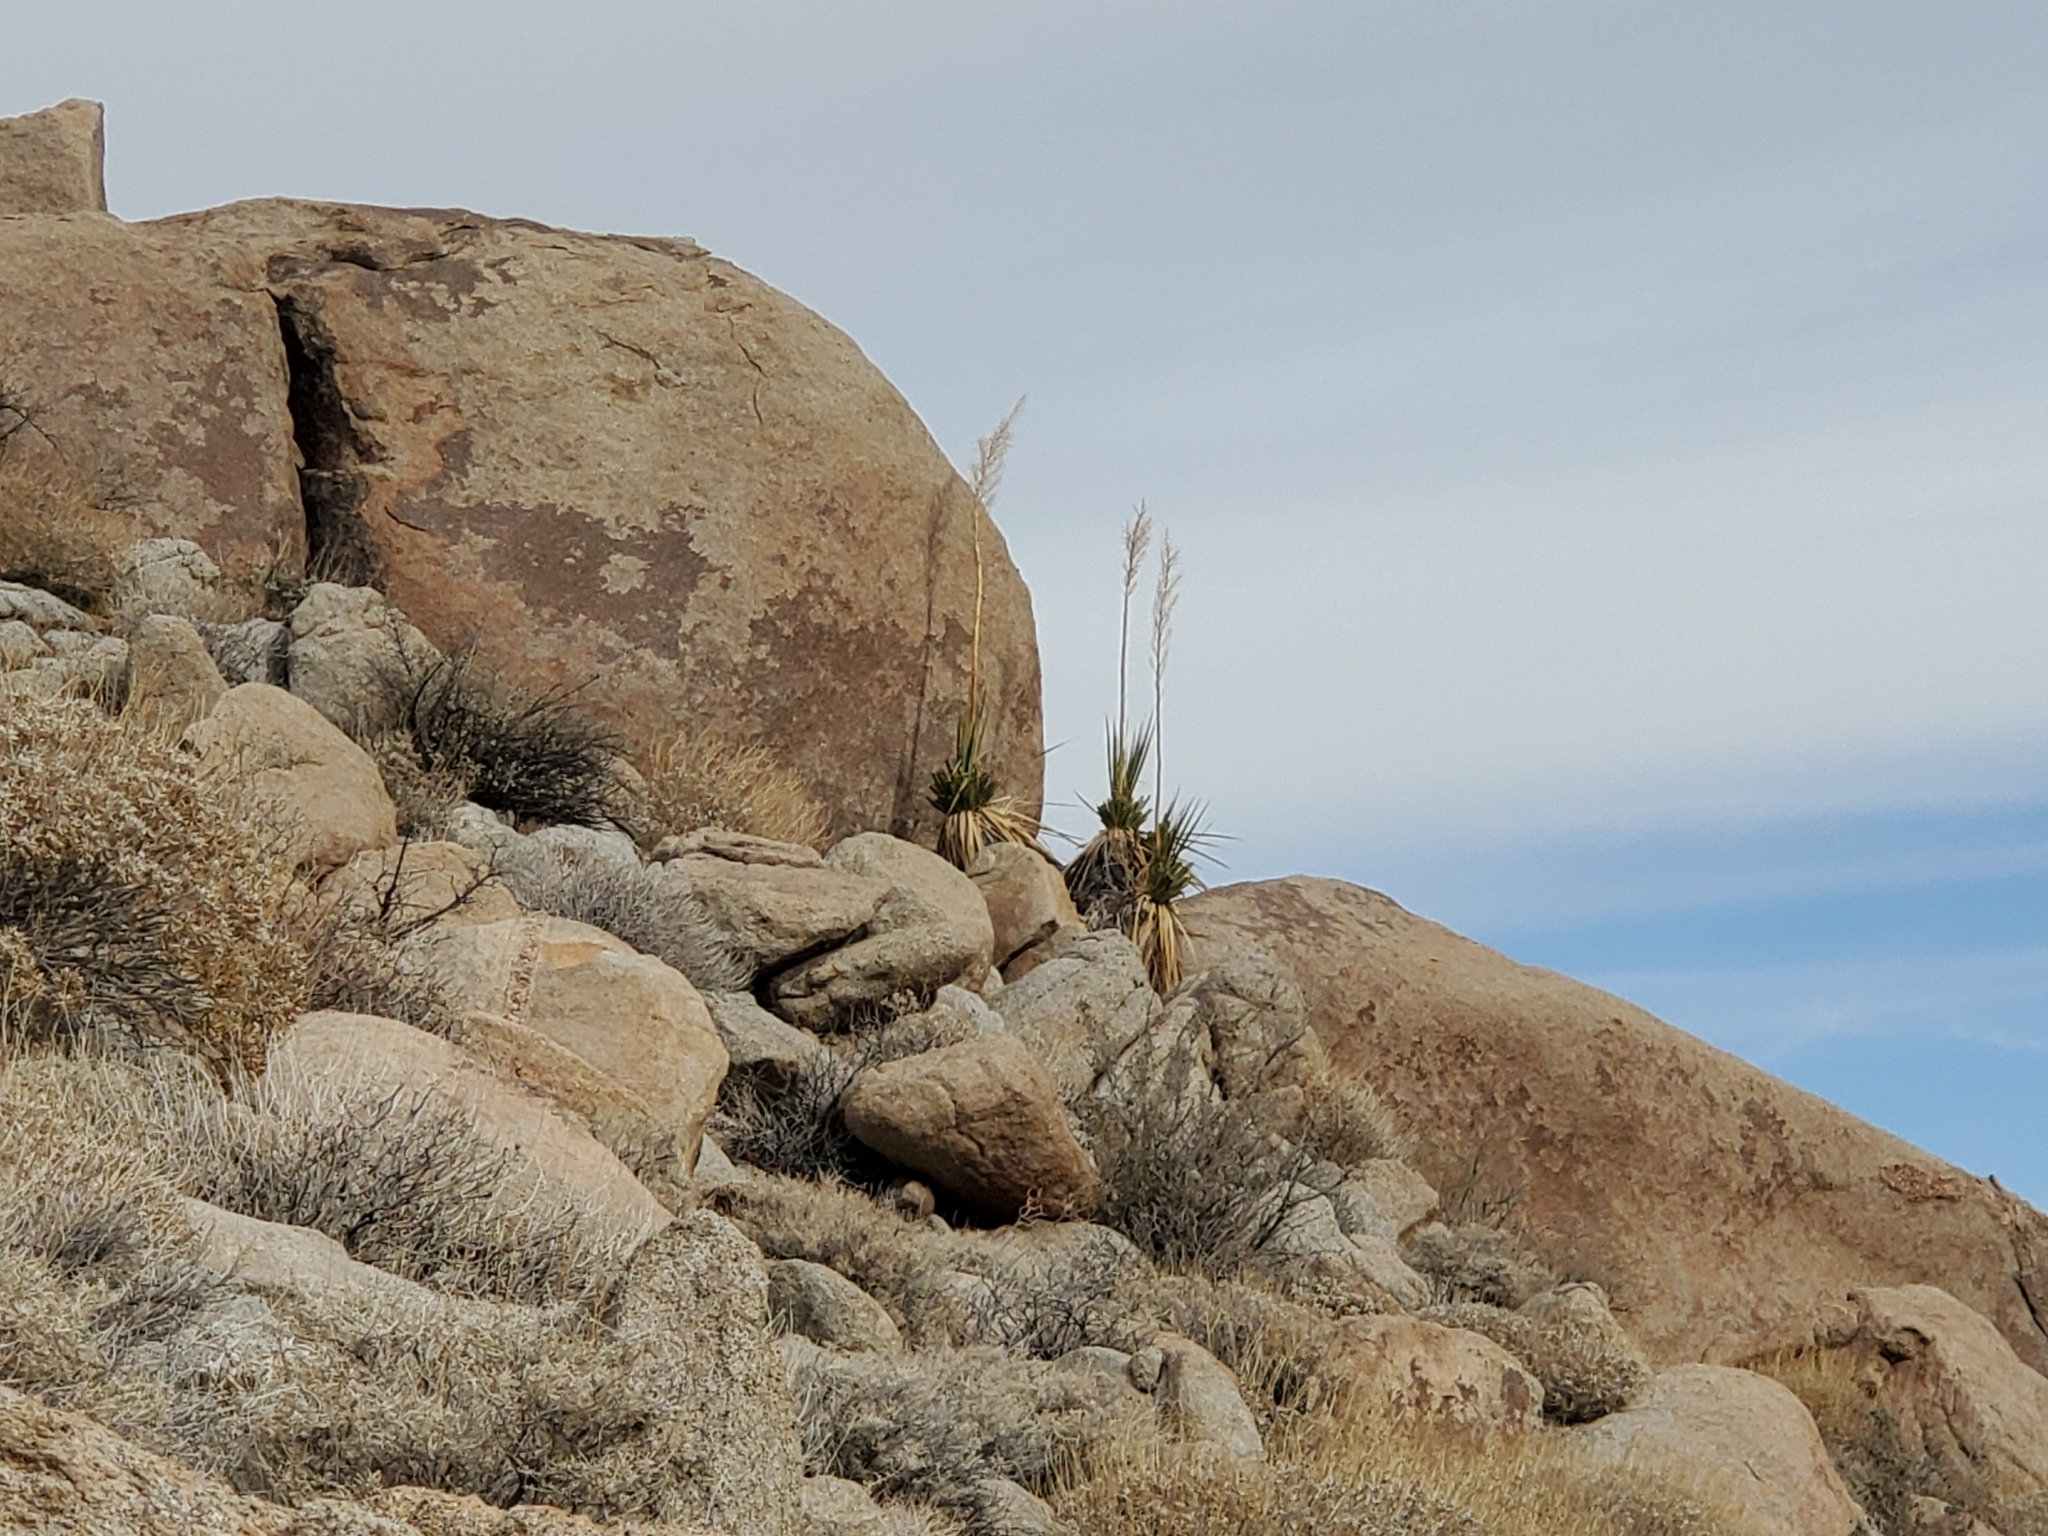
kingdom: Plantae
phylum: Tracheophyta
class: Liliopsida
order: Asparagales
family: Asparagaceae
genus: Nolina
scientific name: Nolina bigelovii
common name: Bigelow bear-grass
